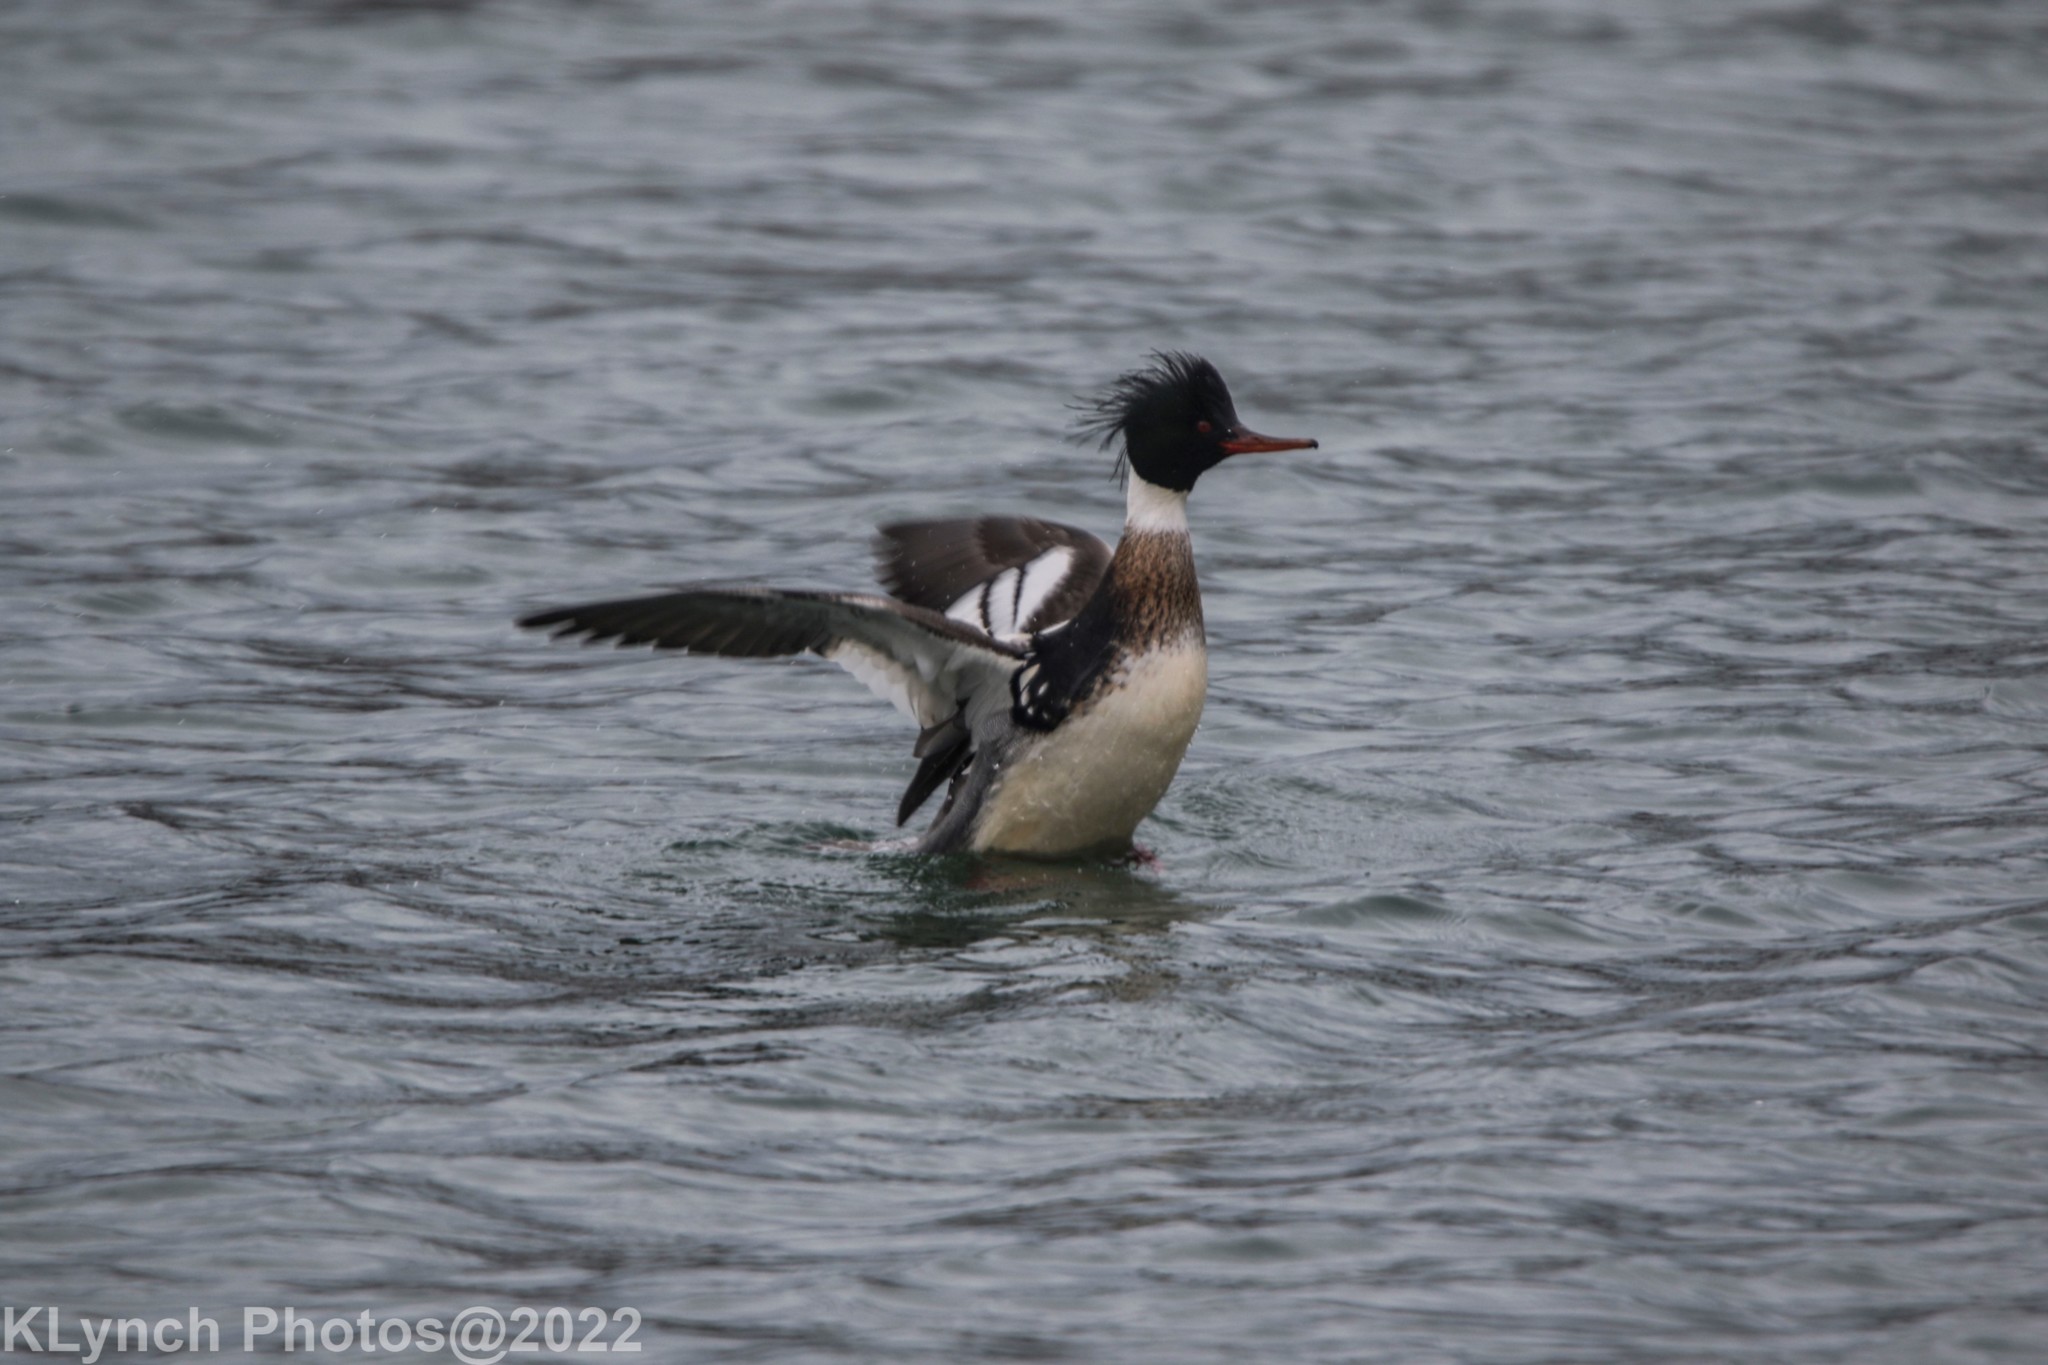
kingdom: Animalia
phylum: Chordata
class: Aves
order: Anseriformes
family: Anatidae
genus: Mergus
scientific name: Mergus serrator
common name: Red-breasted merganser
